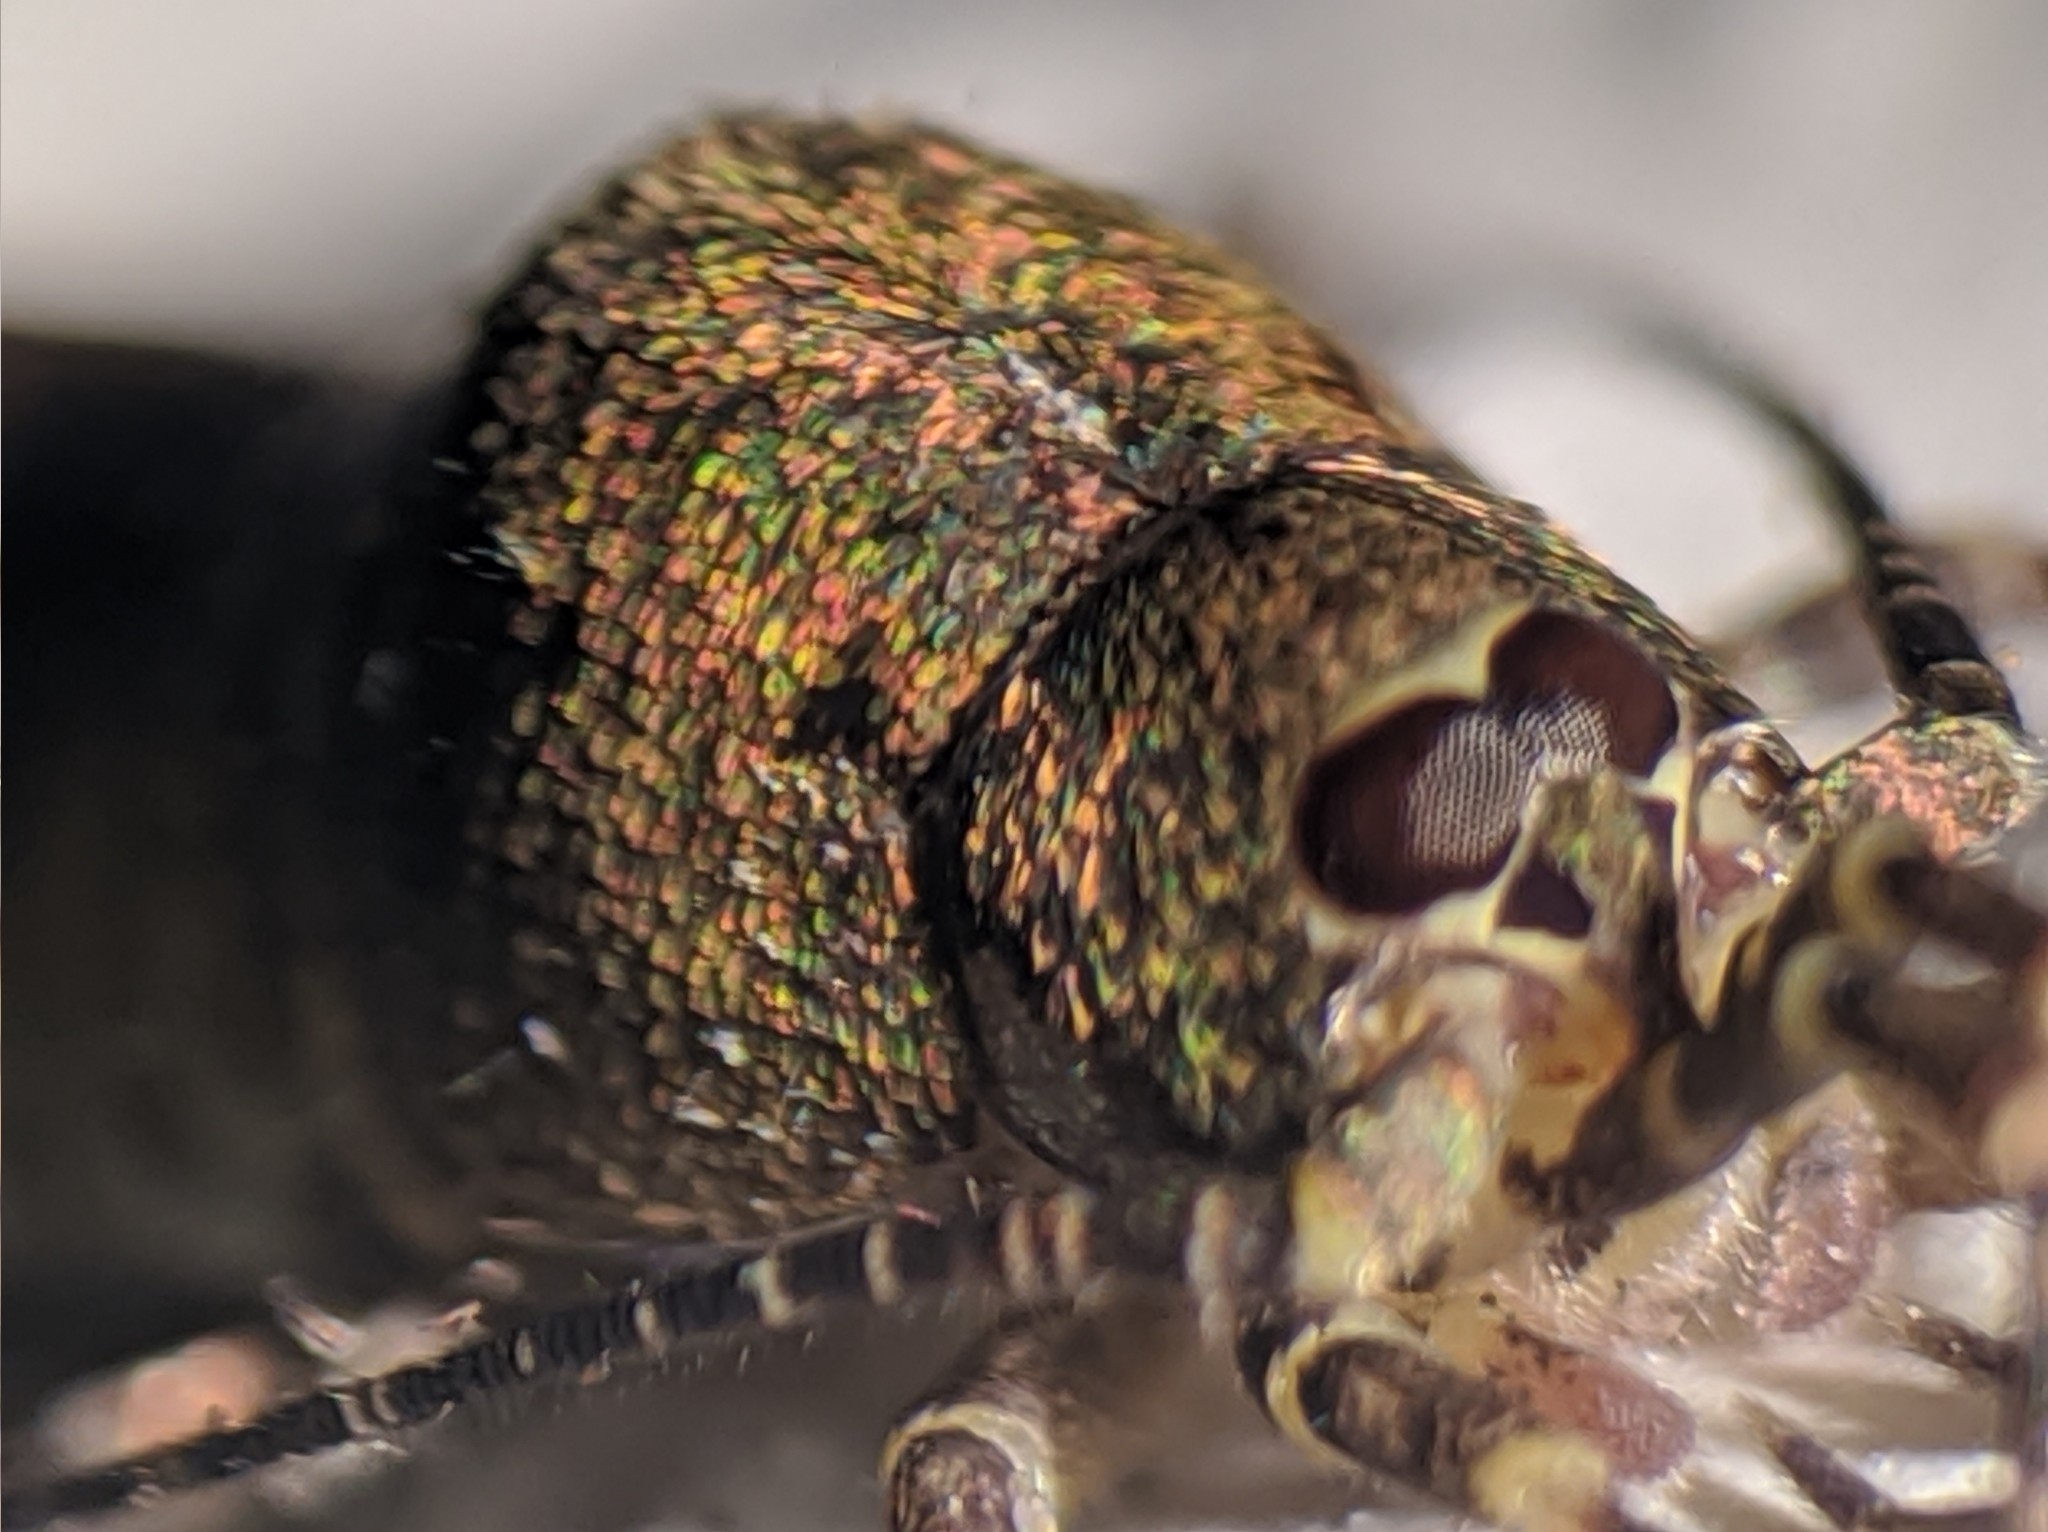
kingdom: Animalia
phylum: Arthropoda
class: Insecta
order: Archaeognatha
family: Machilidae
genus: Trigoniophthalmus
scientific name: Trigoniophthalmus alternatus
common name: Jumping bristletail
